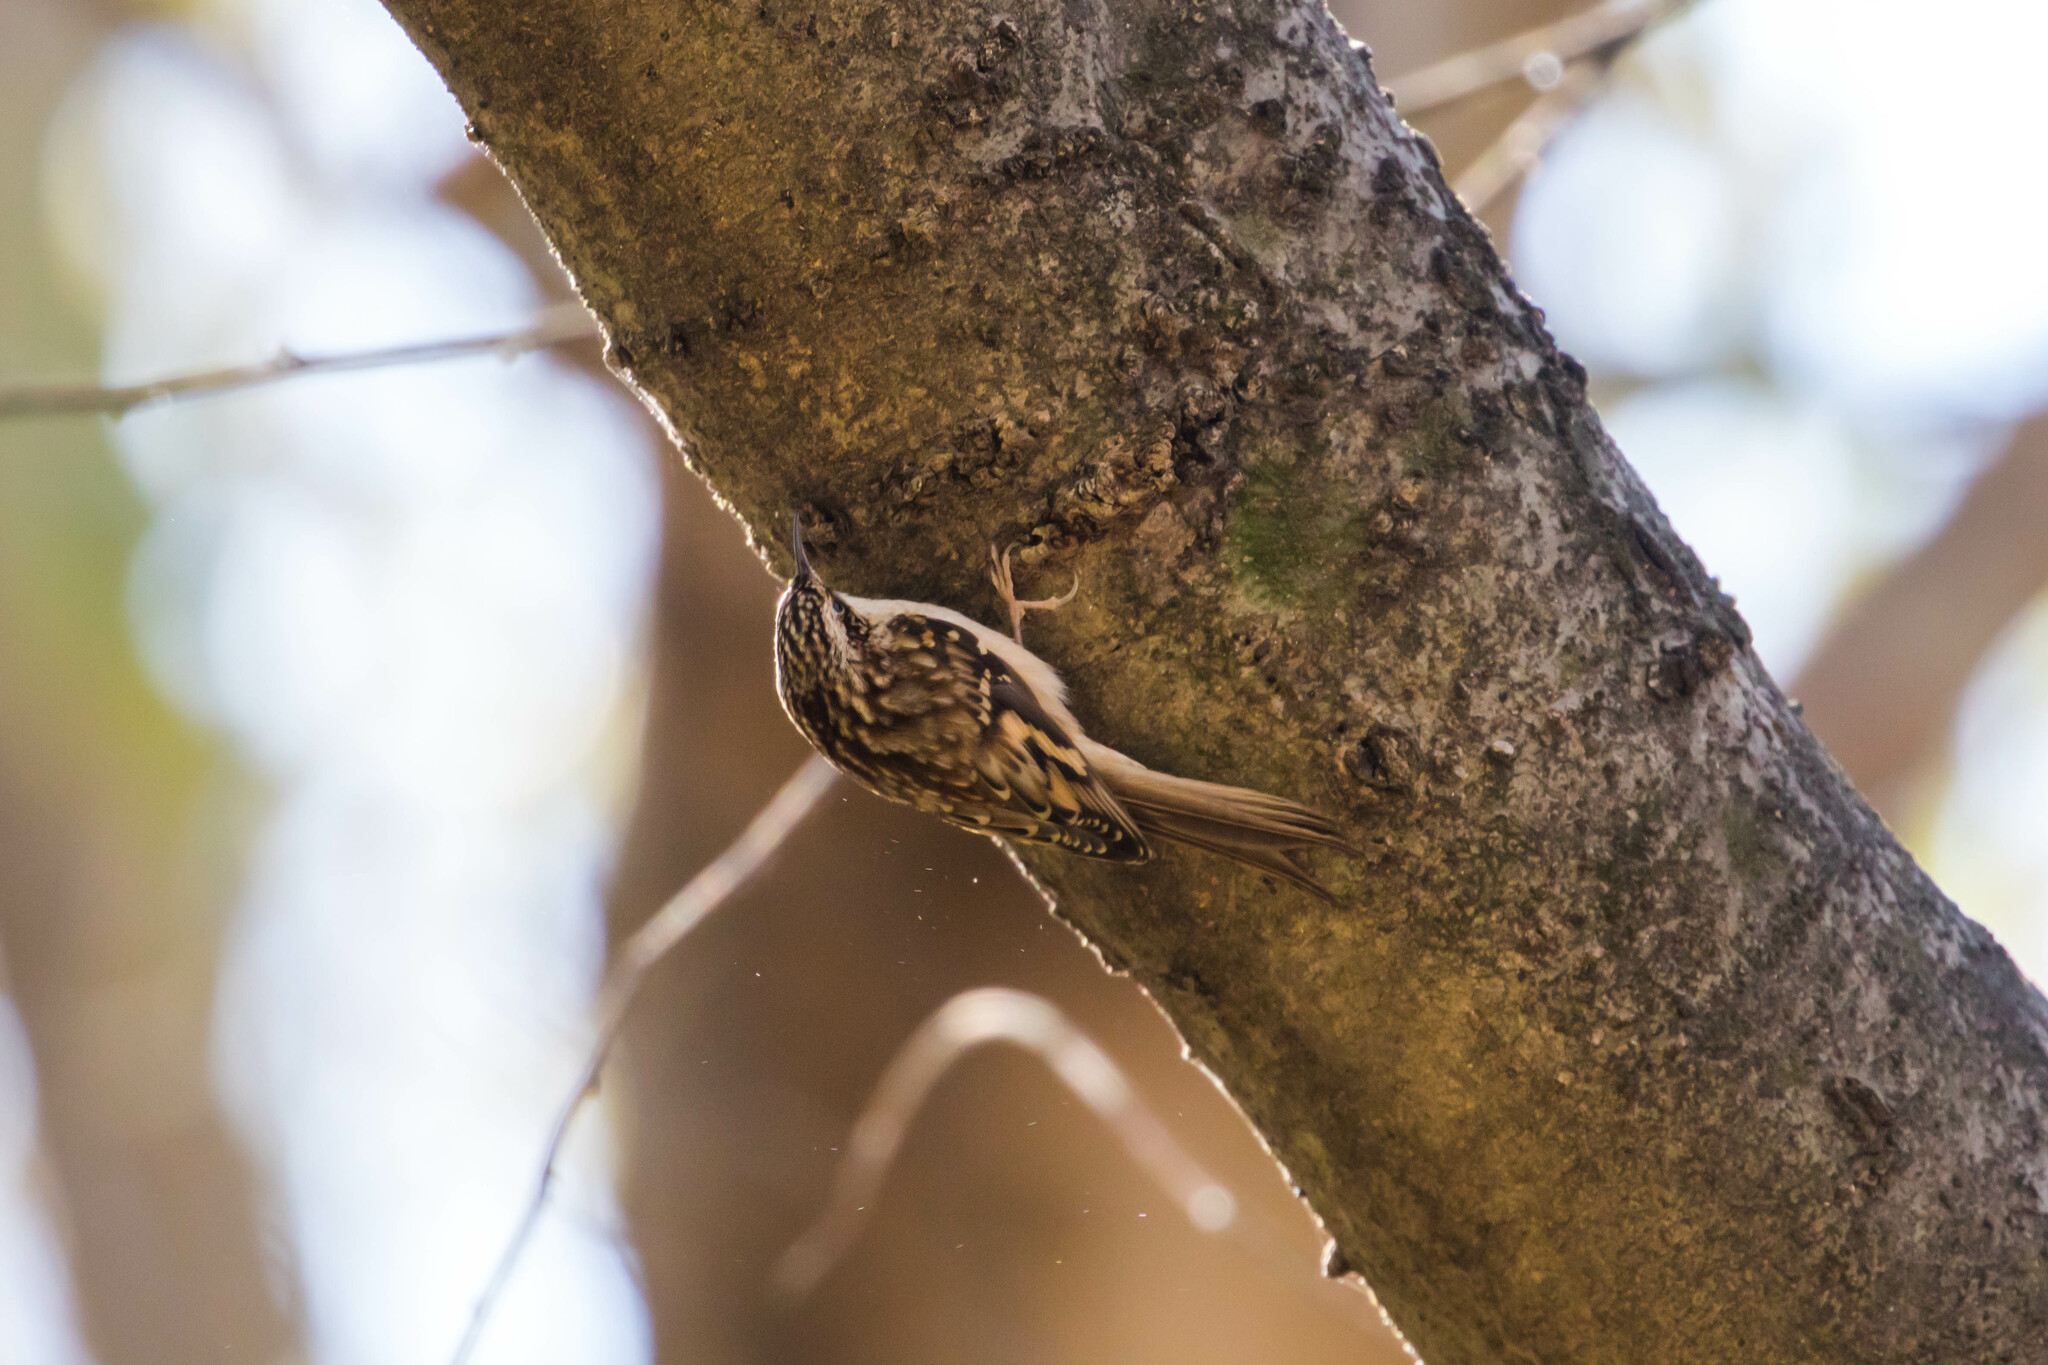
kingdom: Animalia
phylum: Chordata
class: Aves
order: Passeriformes
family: Certhiidae
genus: Certhia
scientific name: Certhia americana
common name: Brown creeper
